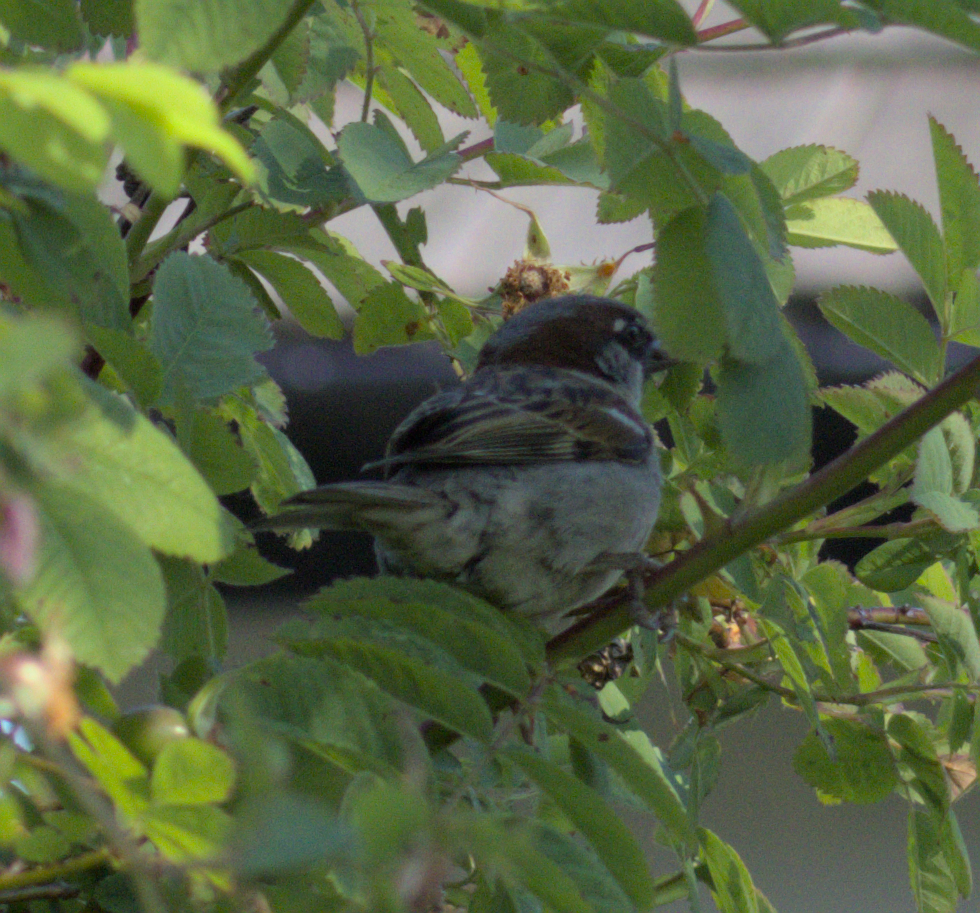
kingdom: Animalia
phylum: Chordata
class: Aves
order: Passeriformes
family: Passeridae
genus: Passer
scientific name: Passer domesticus
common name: House sparrow
